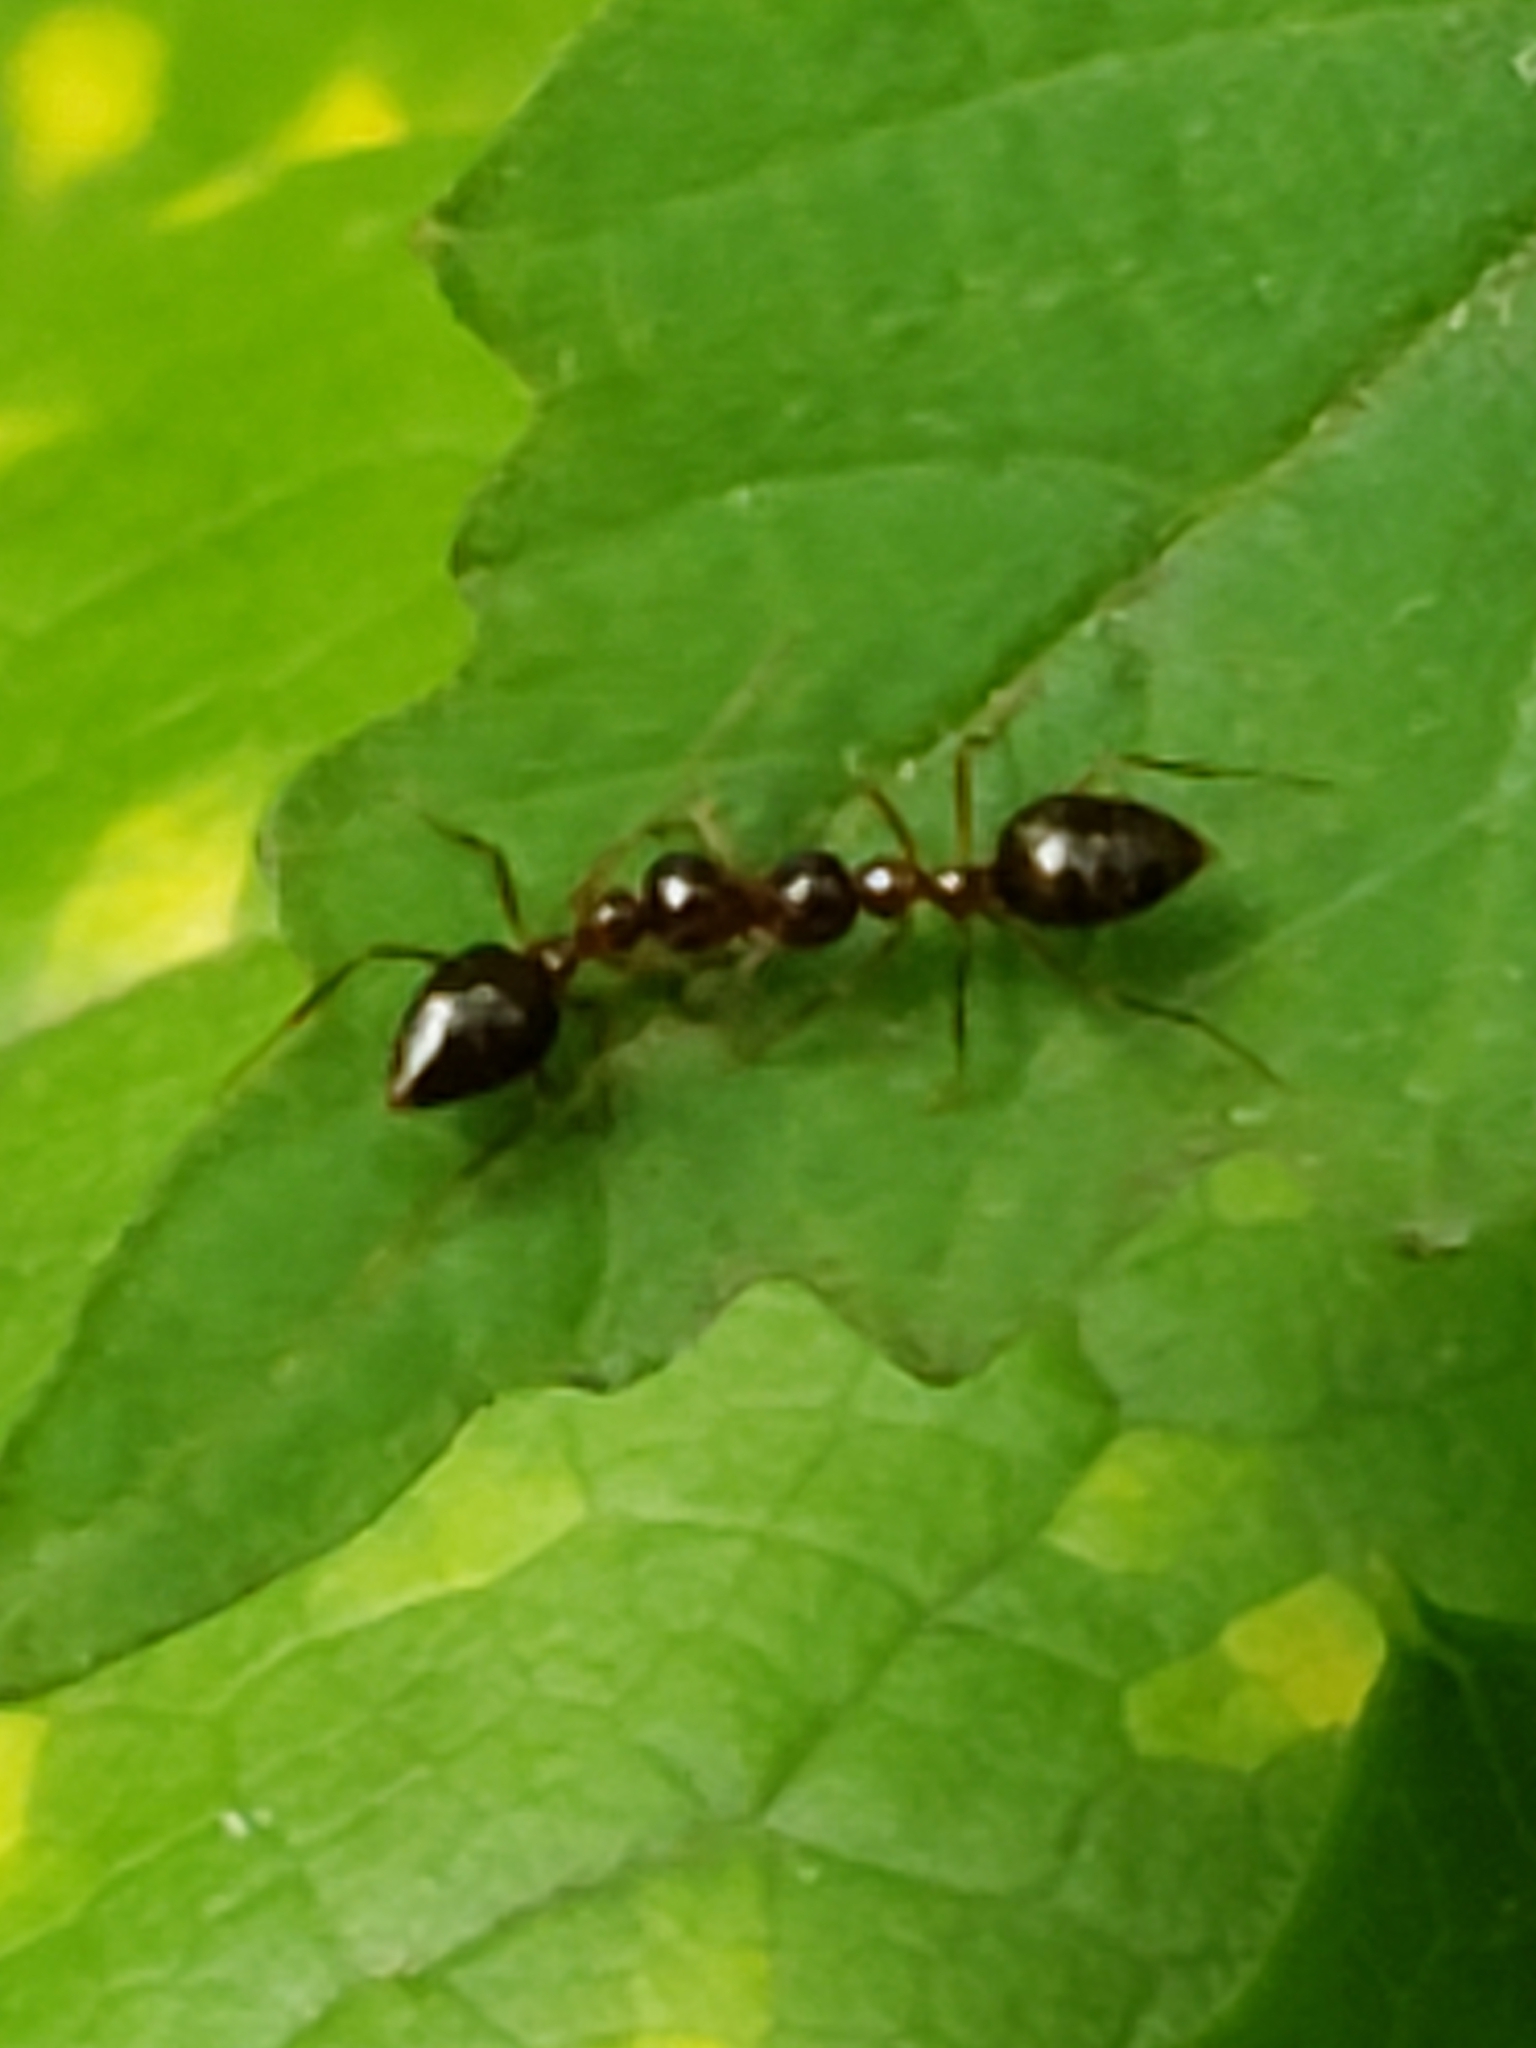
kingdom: Animalia
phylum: Arthropoda
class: Insecta
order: Hymenoptera
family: Formicidae
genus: Prenolepis
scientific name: Prenolepis imparis
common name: Small honey ant
